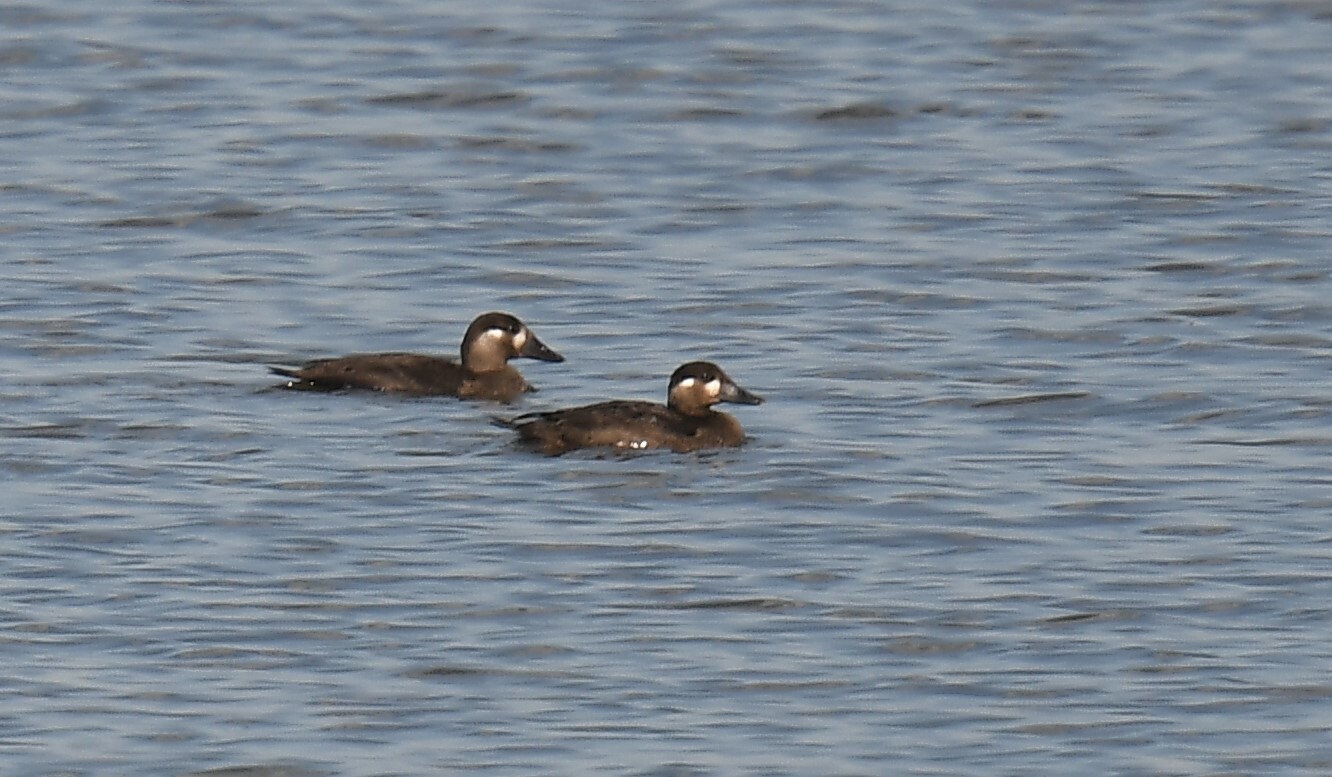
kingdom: Animalia
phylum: Chordata
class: Aves
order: Anseriformes
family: Anatidae
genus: Melanitta
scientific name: Melanitta perspicillata
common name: Surf scoter
